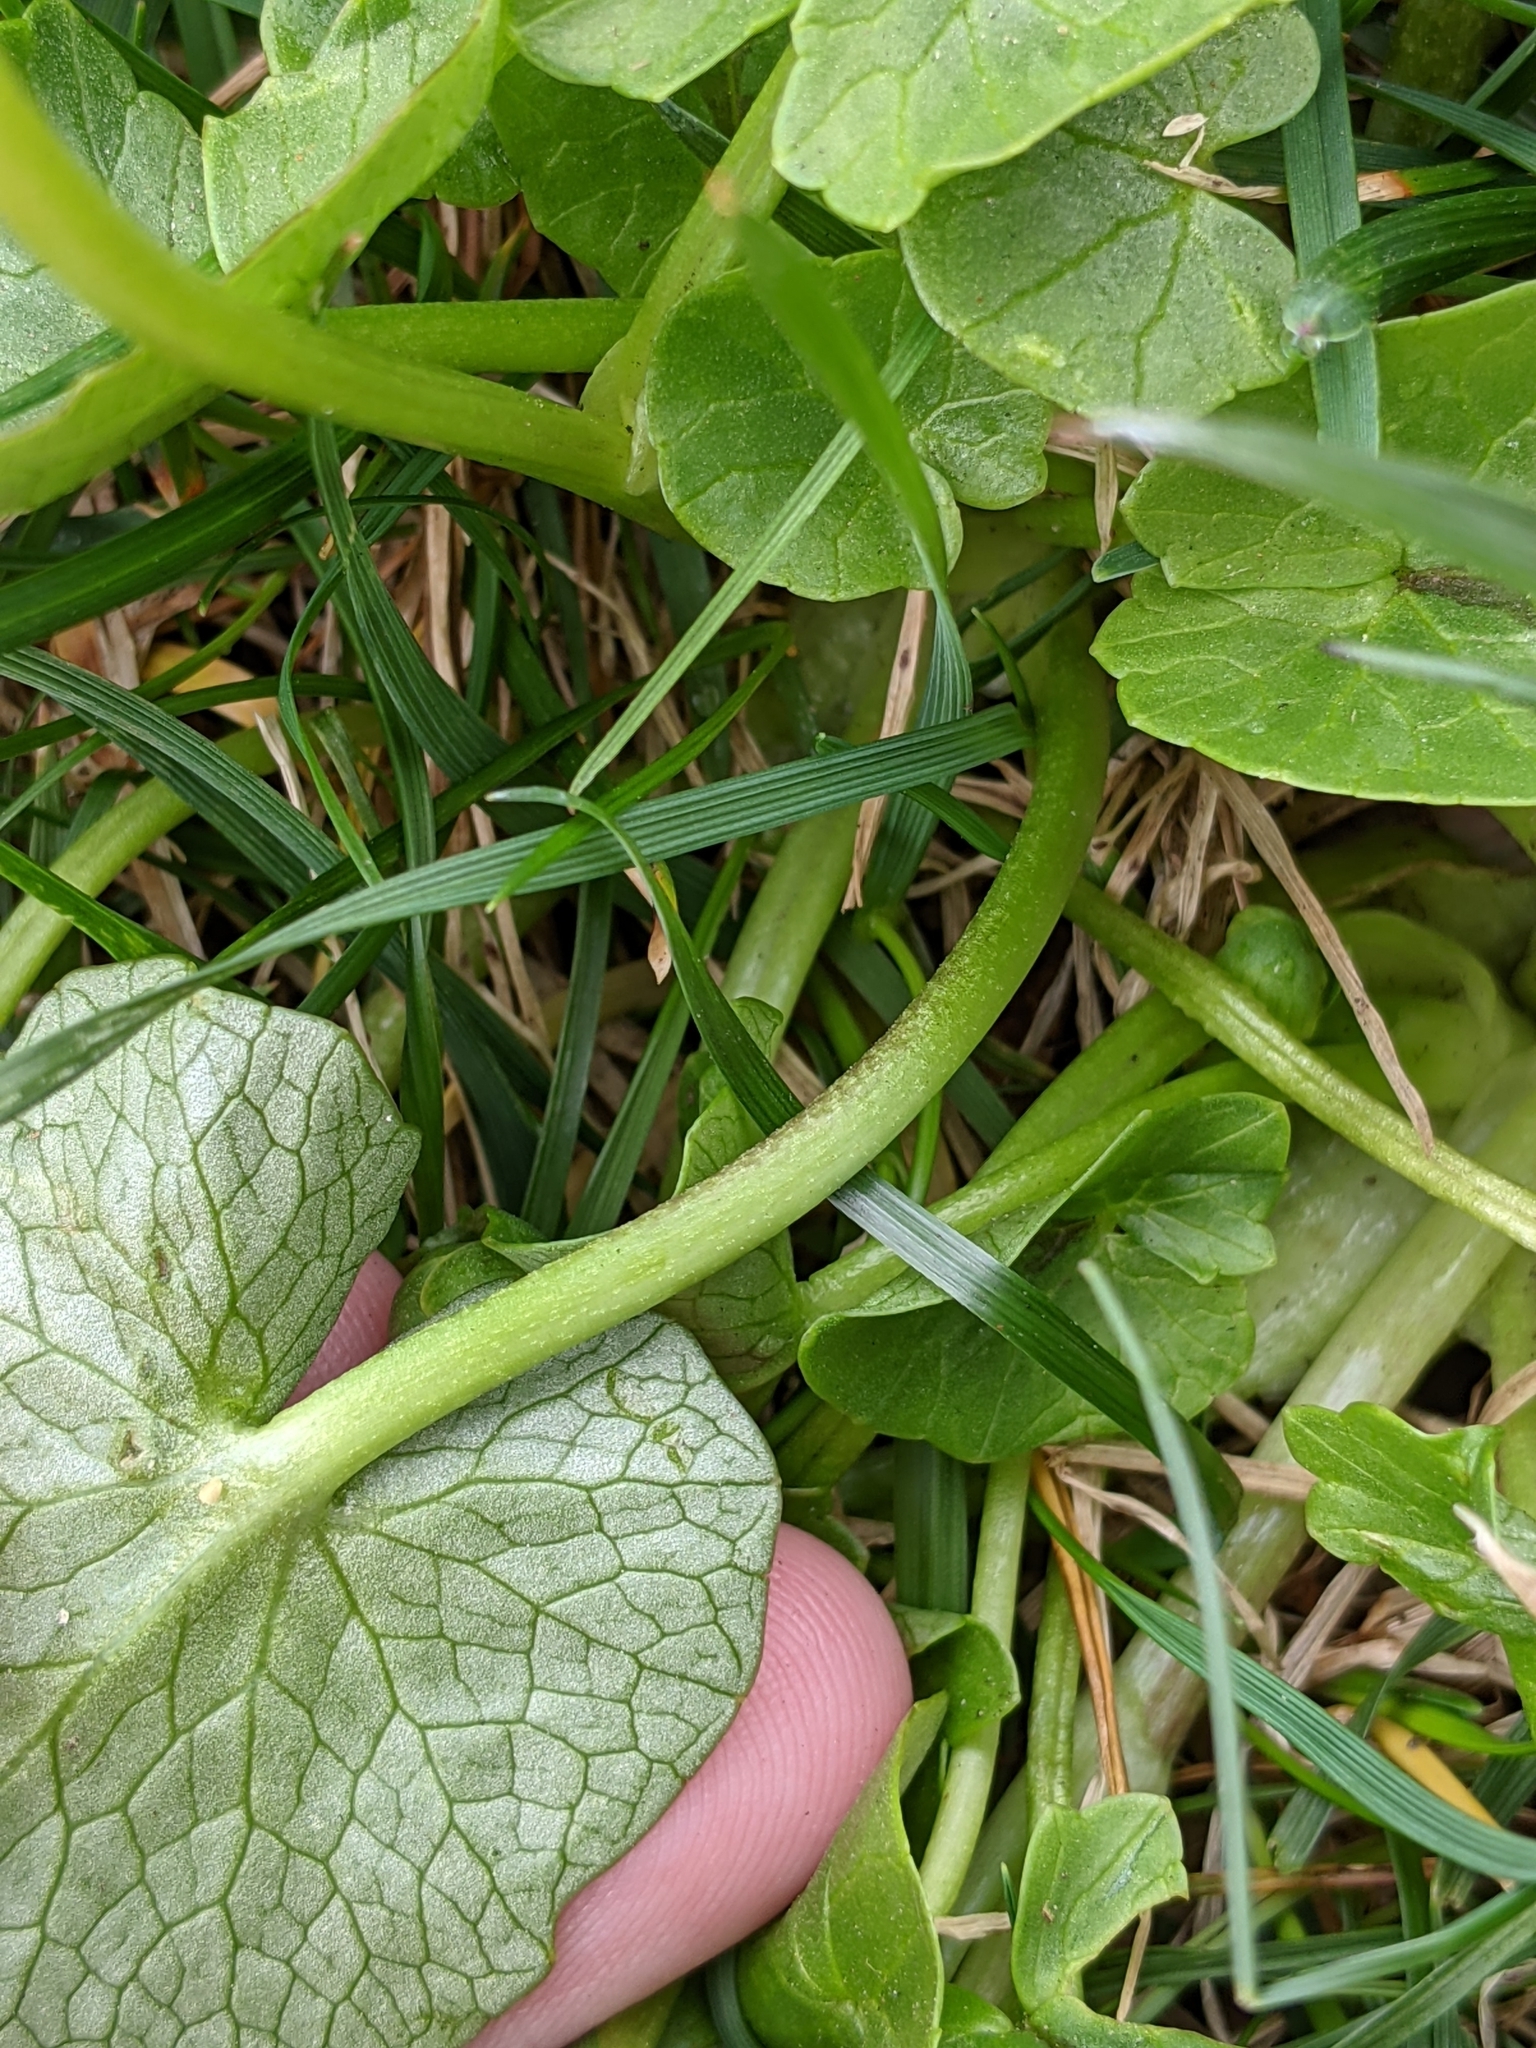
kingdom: Plantae
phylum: Tracheophyta
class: Magnoliopsida
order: Ranunculales
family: Ranunculaceae
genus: Ficaria
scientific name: Ficaria verna
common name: Lesser celandine
